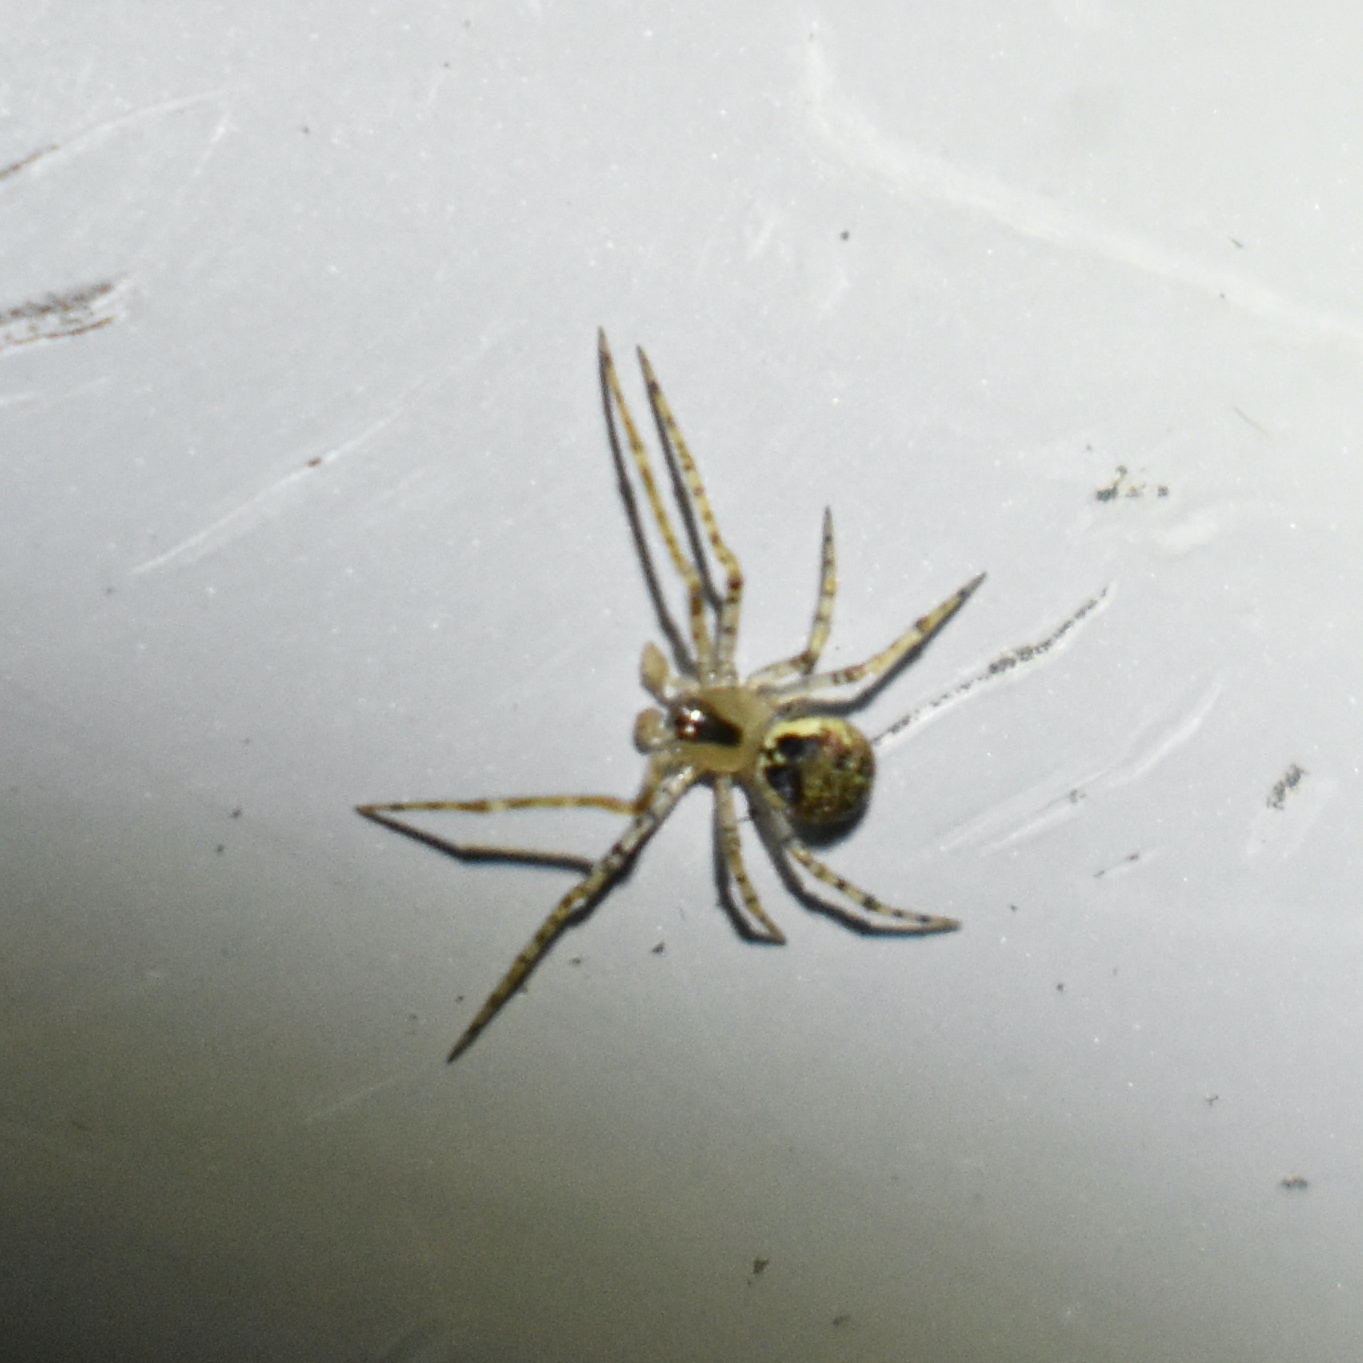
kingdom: Animalia
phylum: Arthropoda
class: Arachnida
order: Araneae
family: Theridiidae
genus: Platnickina
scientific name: Platnickina tincta
